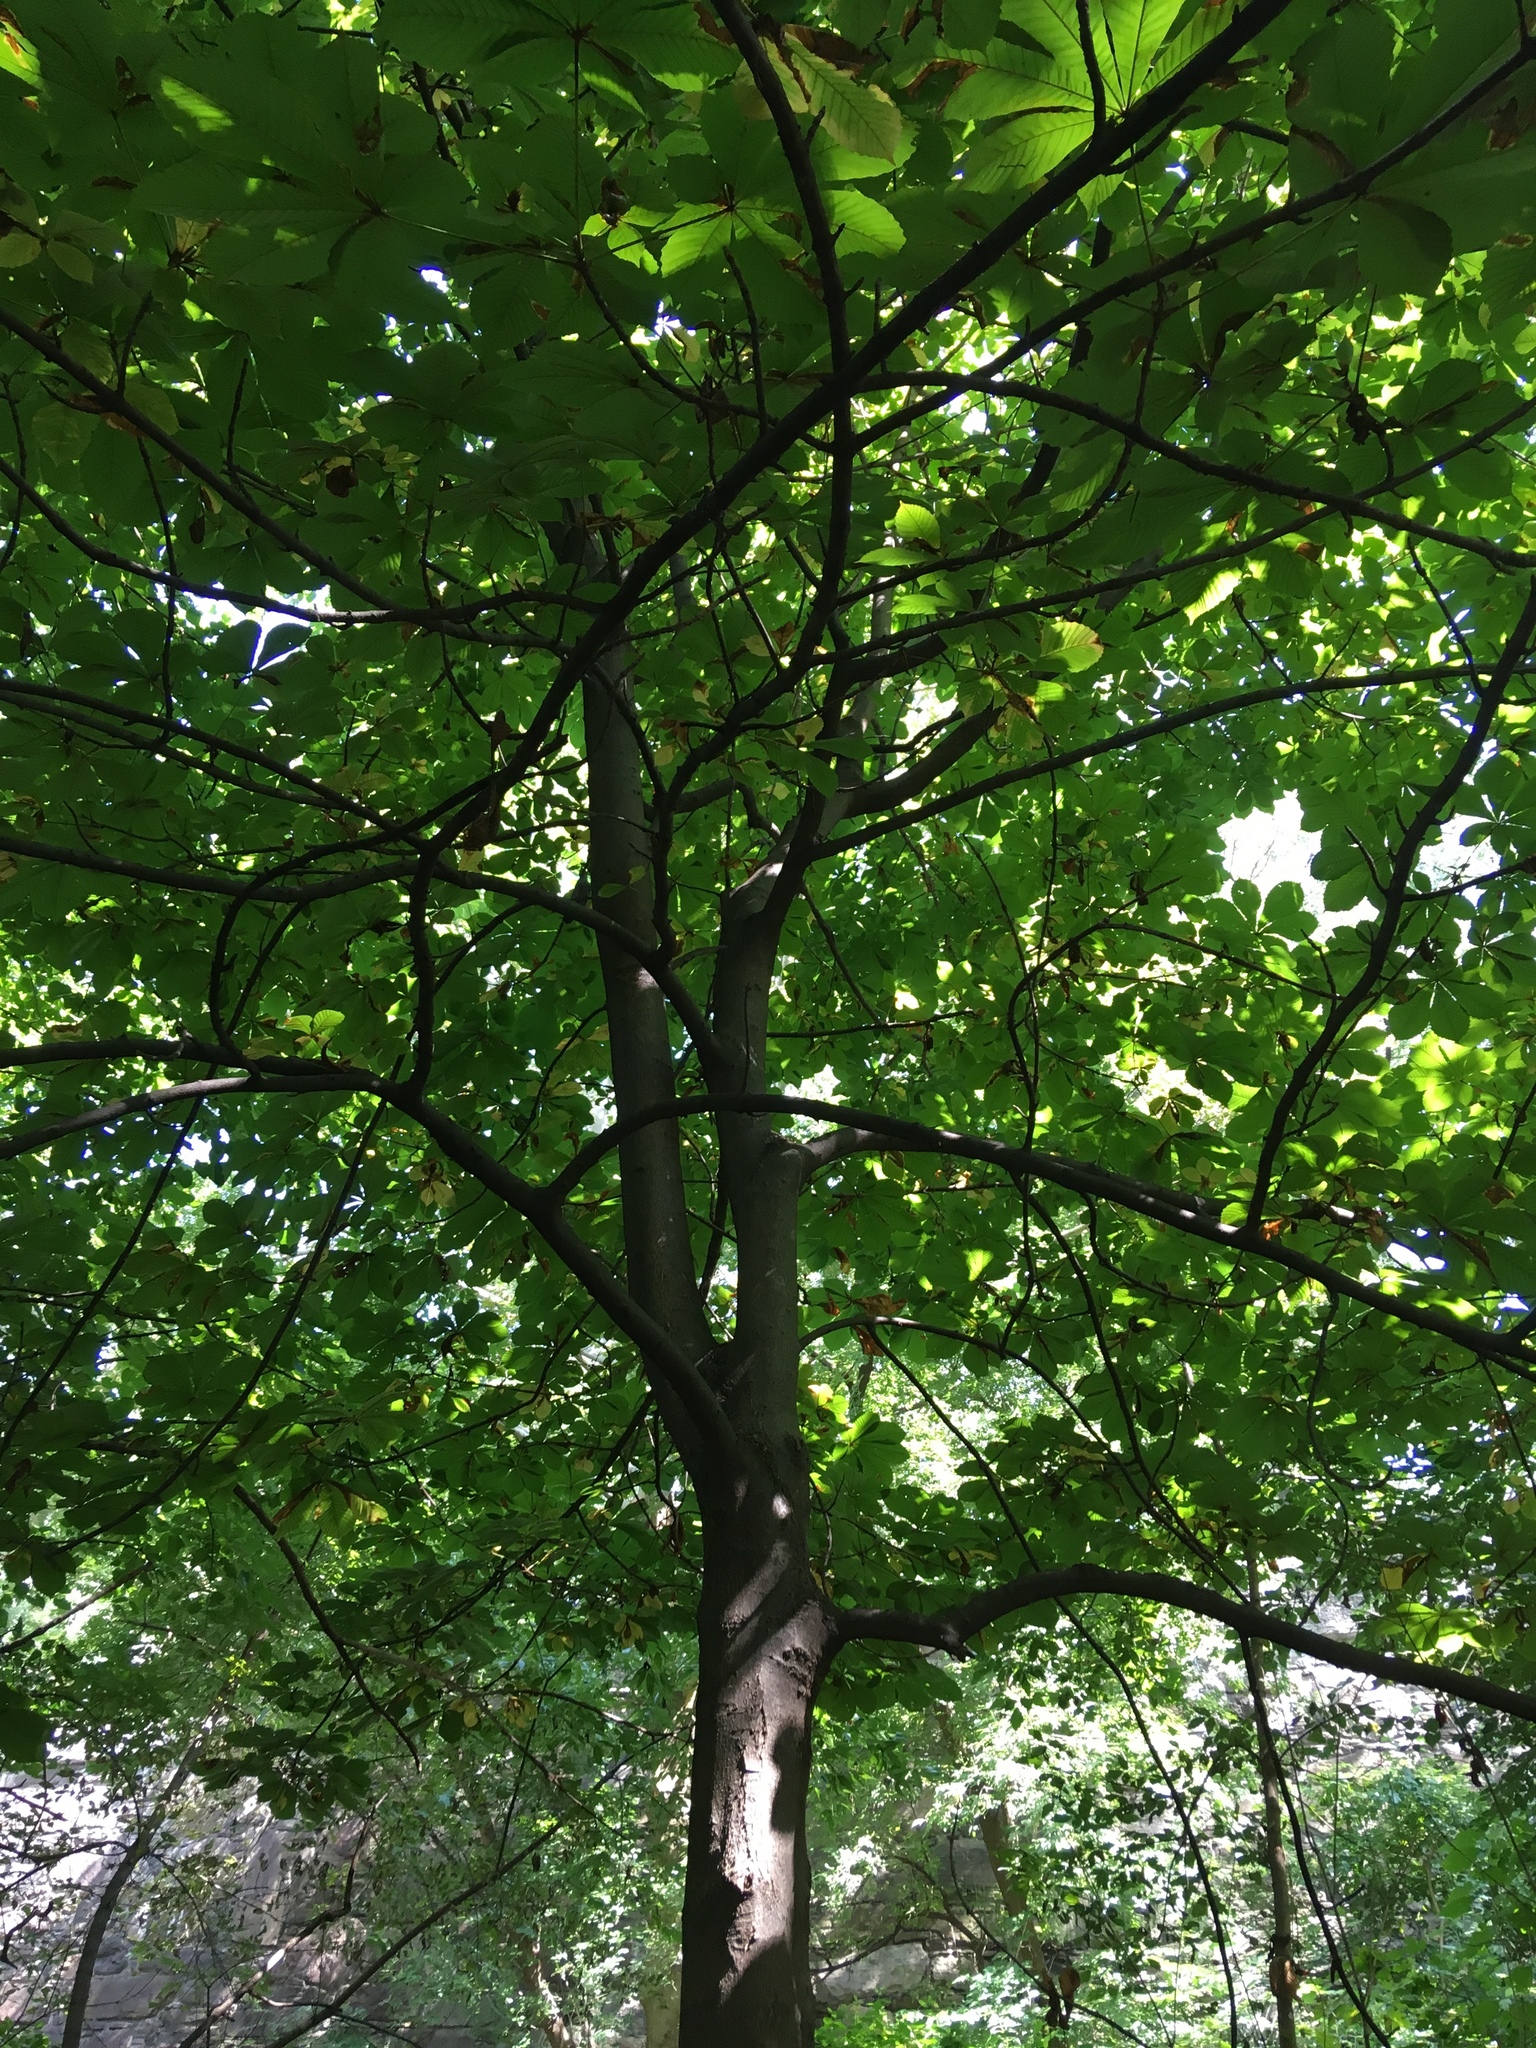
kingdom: Plantae
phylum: Tracheophyta
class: Magnoliopsida
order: Sapindales
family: Sapindaceae
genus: Aesculus
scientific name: Aesculus flava
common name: Yellow buckeye
